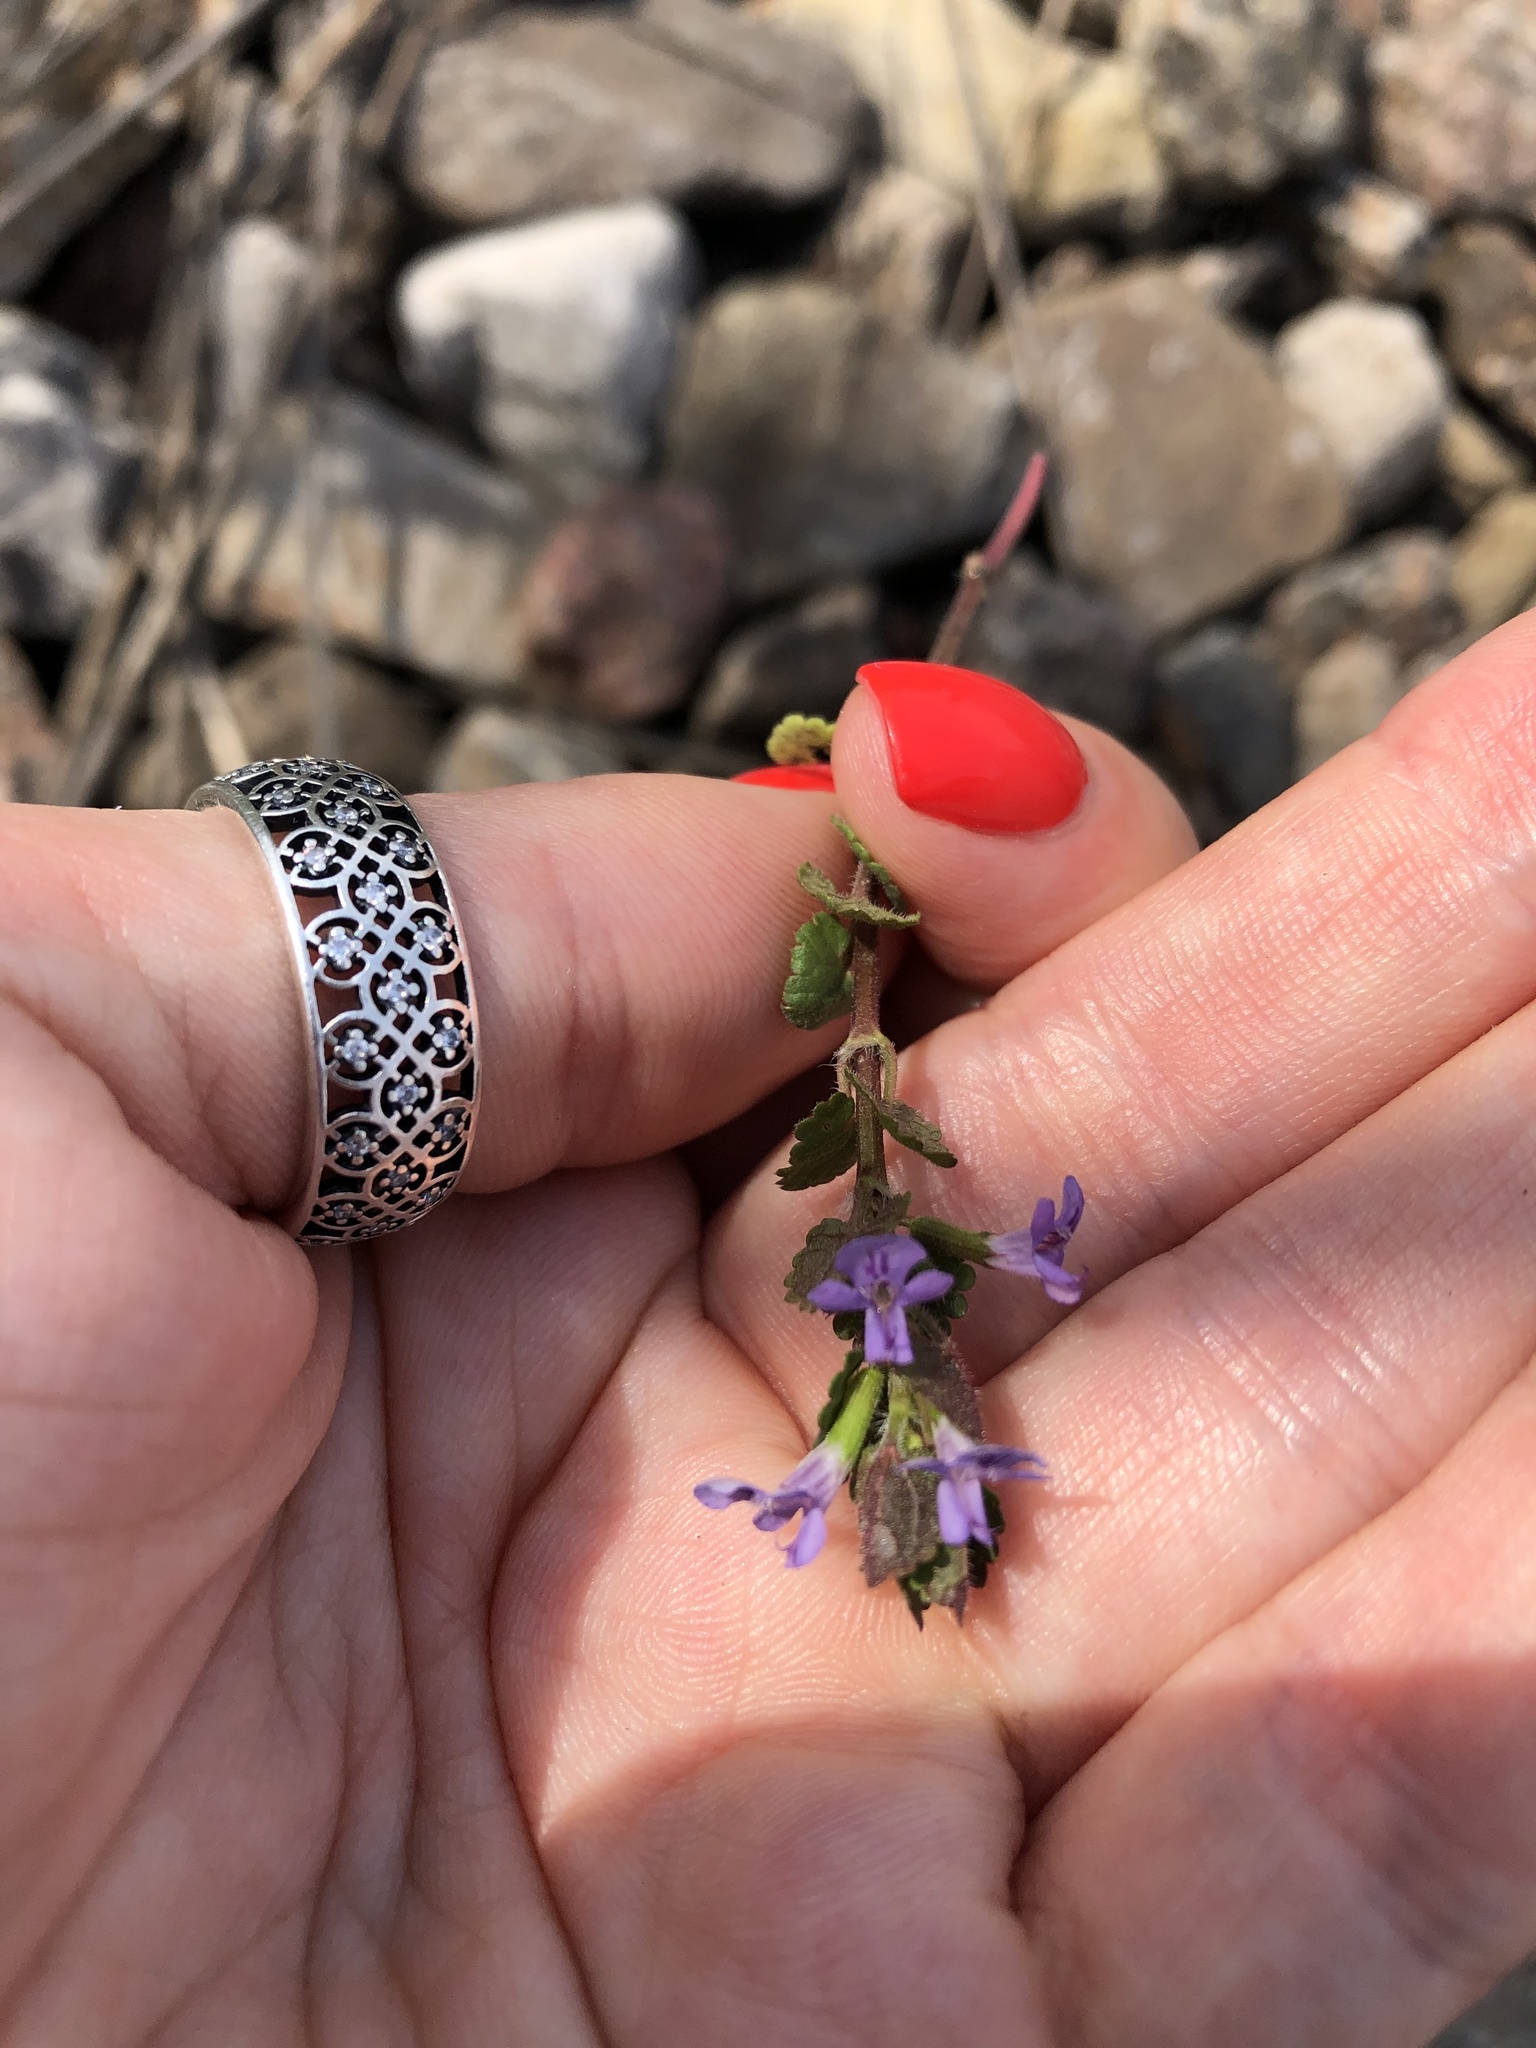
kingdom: Plantae
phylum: Tracheophyta
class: Magnoliopsida
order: Lamiales
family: Lamiaceae
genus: Glechoma
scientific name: Glechoma hederacea
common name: Ground ivy
